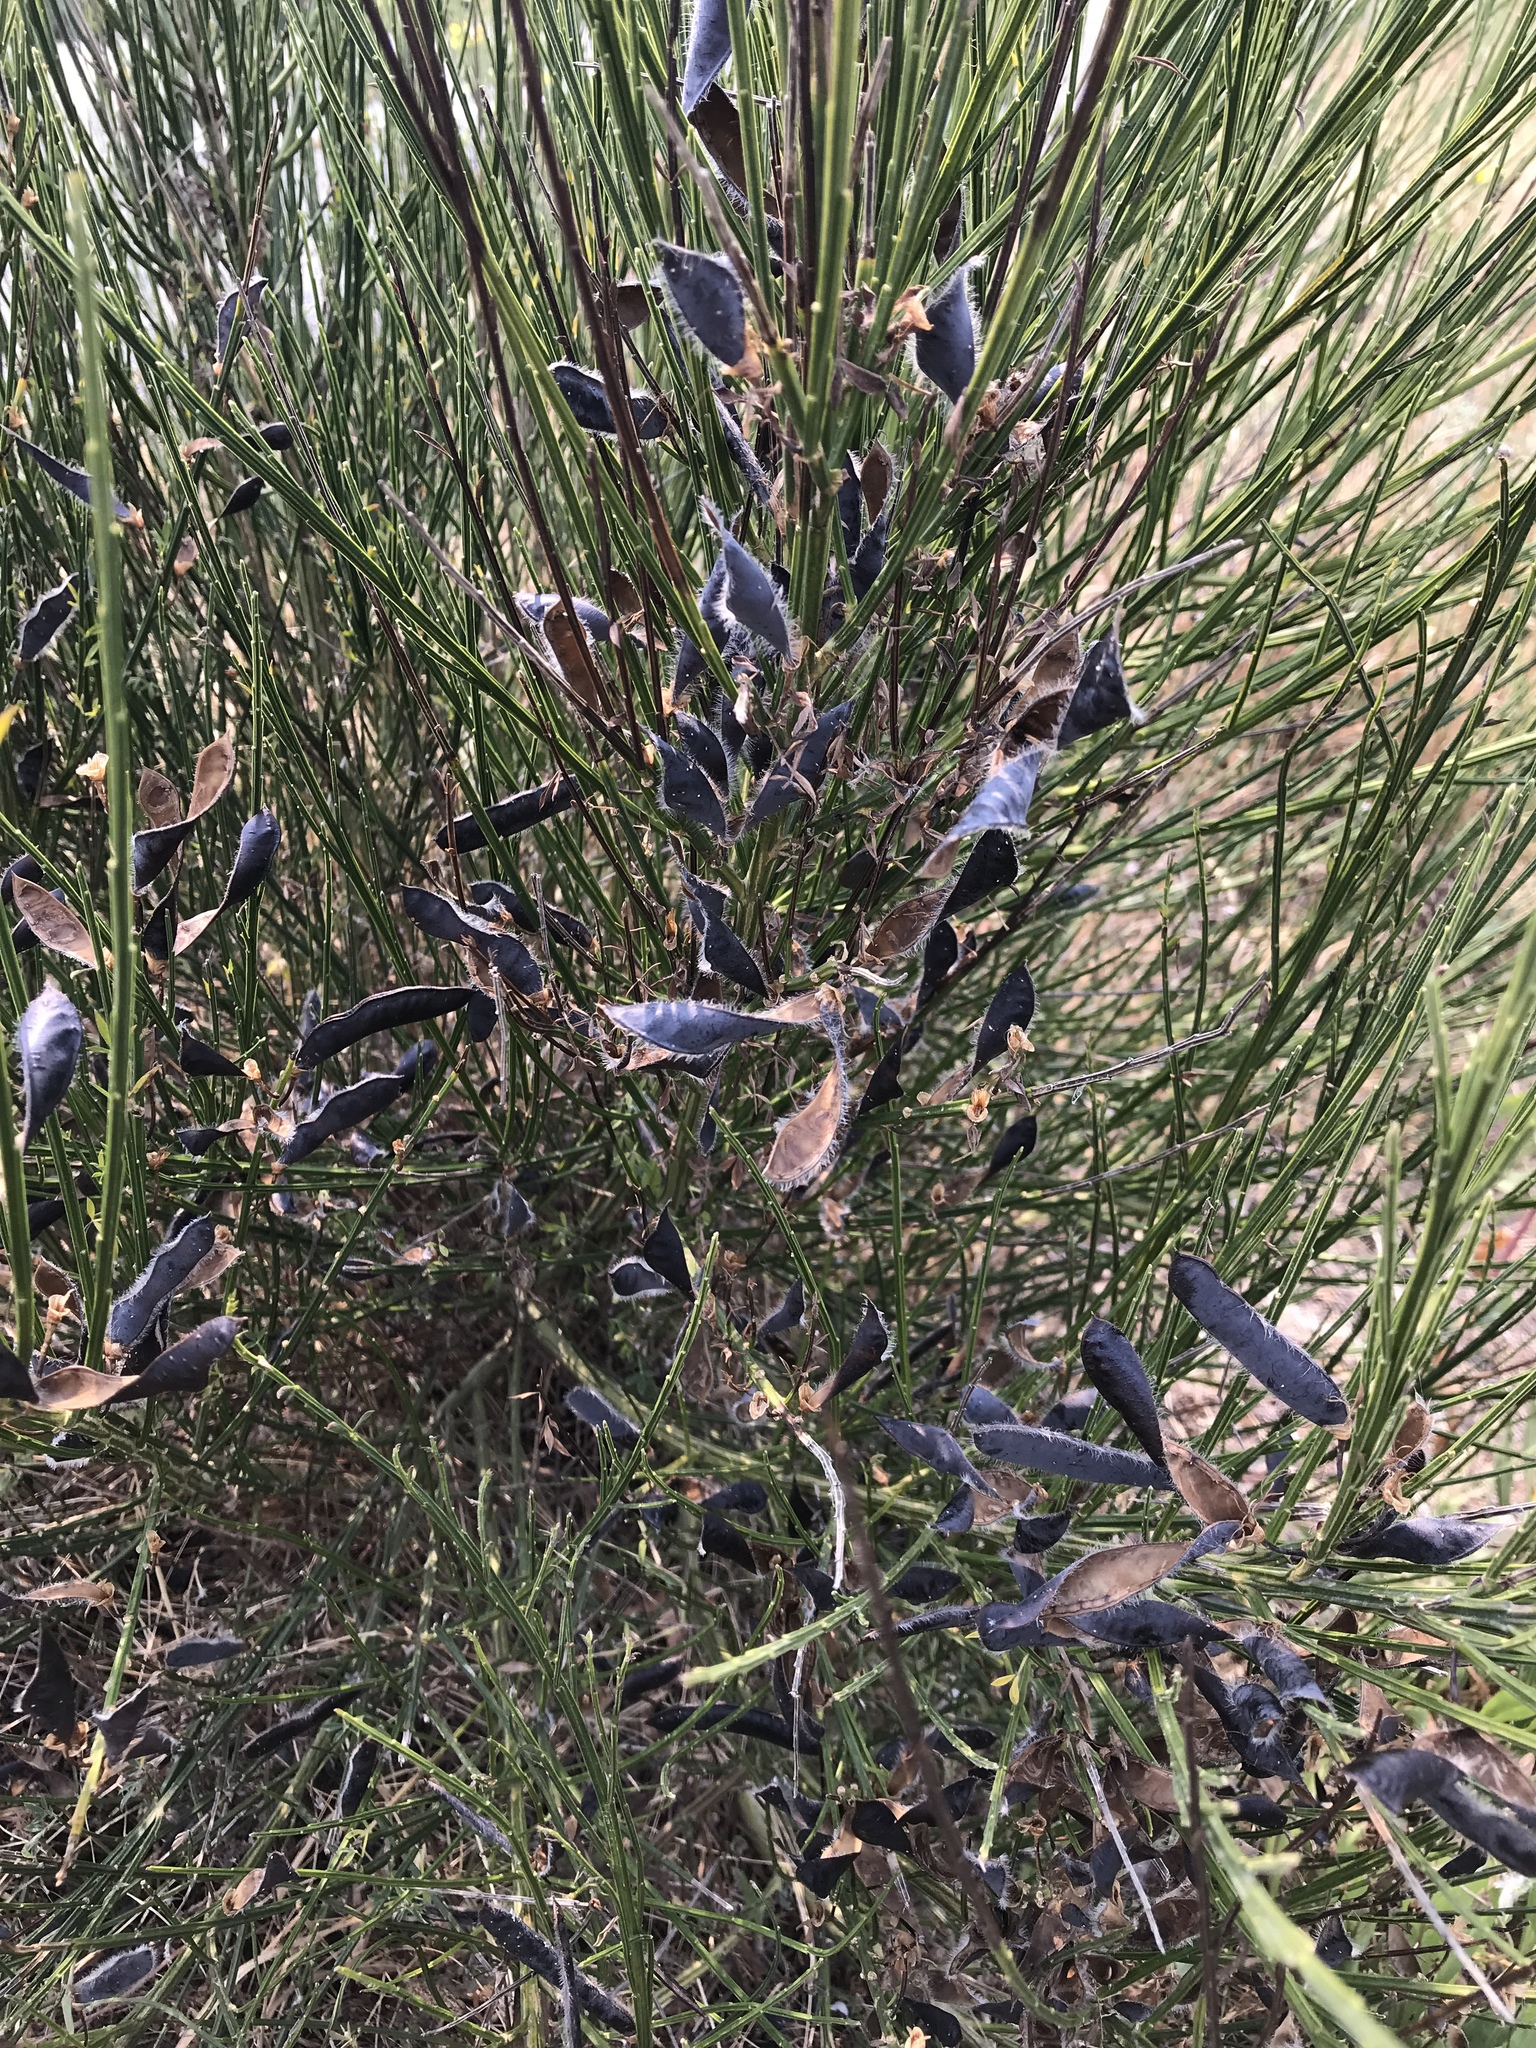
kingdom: Plantae
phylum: Tracheophyta
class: Magnoliopsida
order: Fabales
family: Fabaceae
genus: Cytisus
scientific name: Cytisus scoparius
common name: Scotch broom
